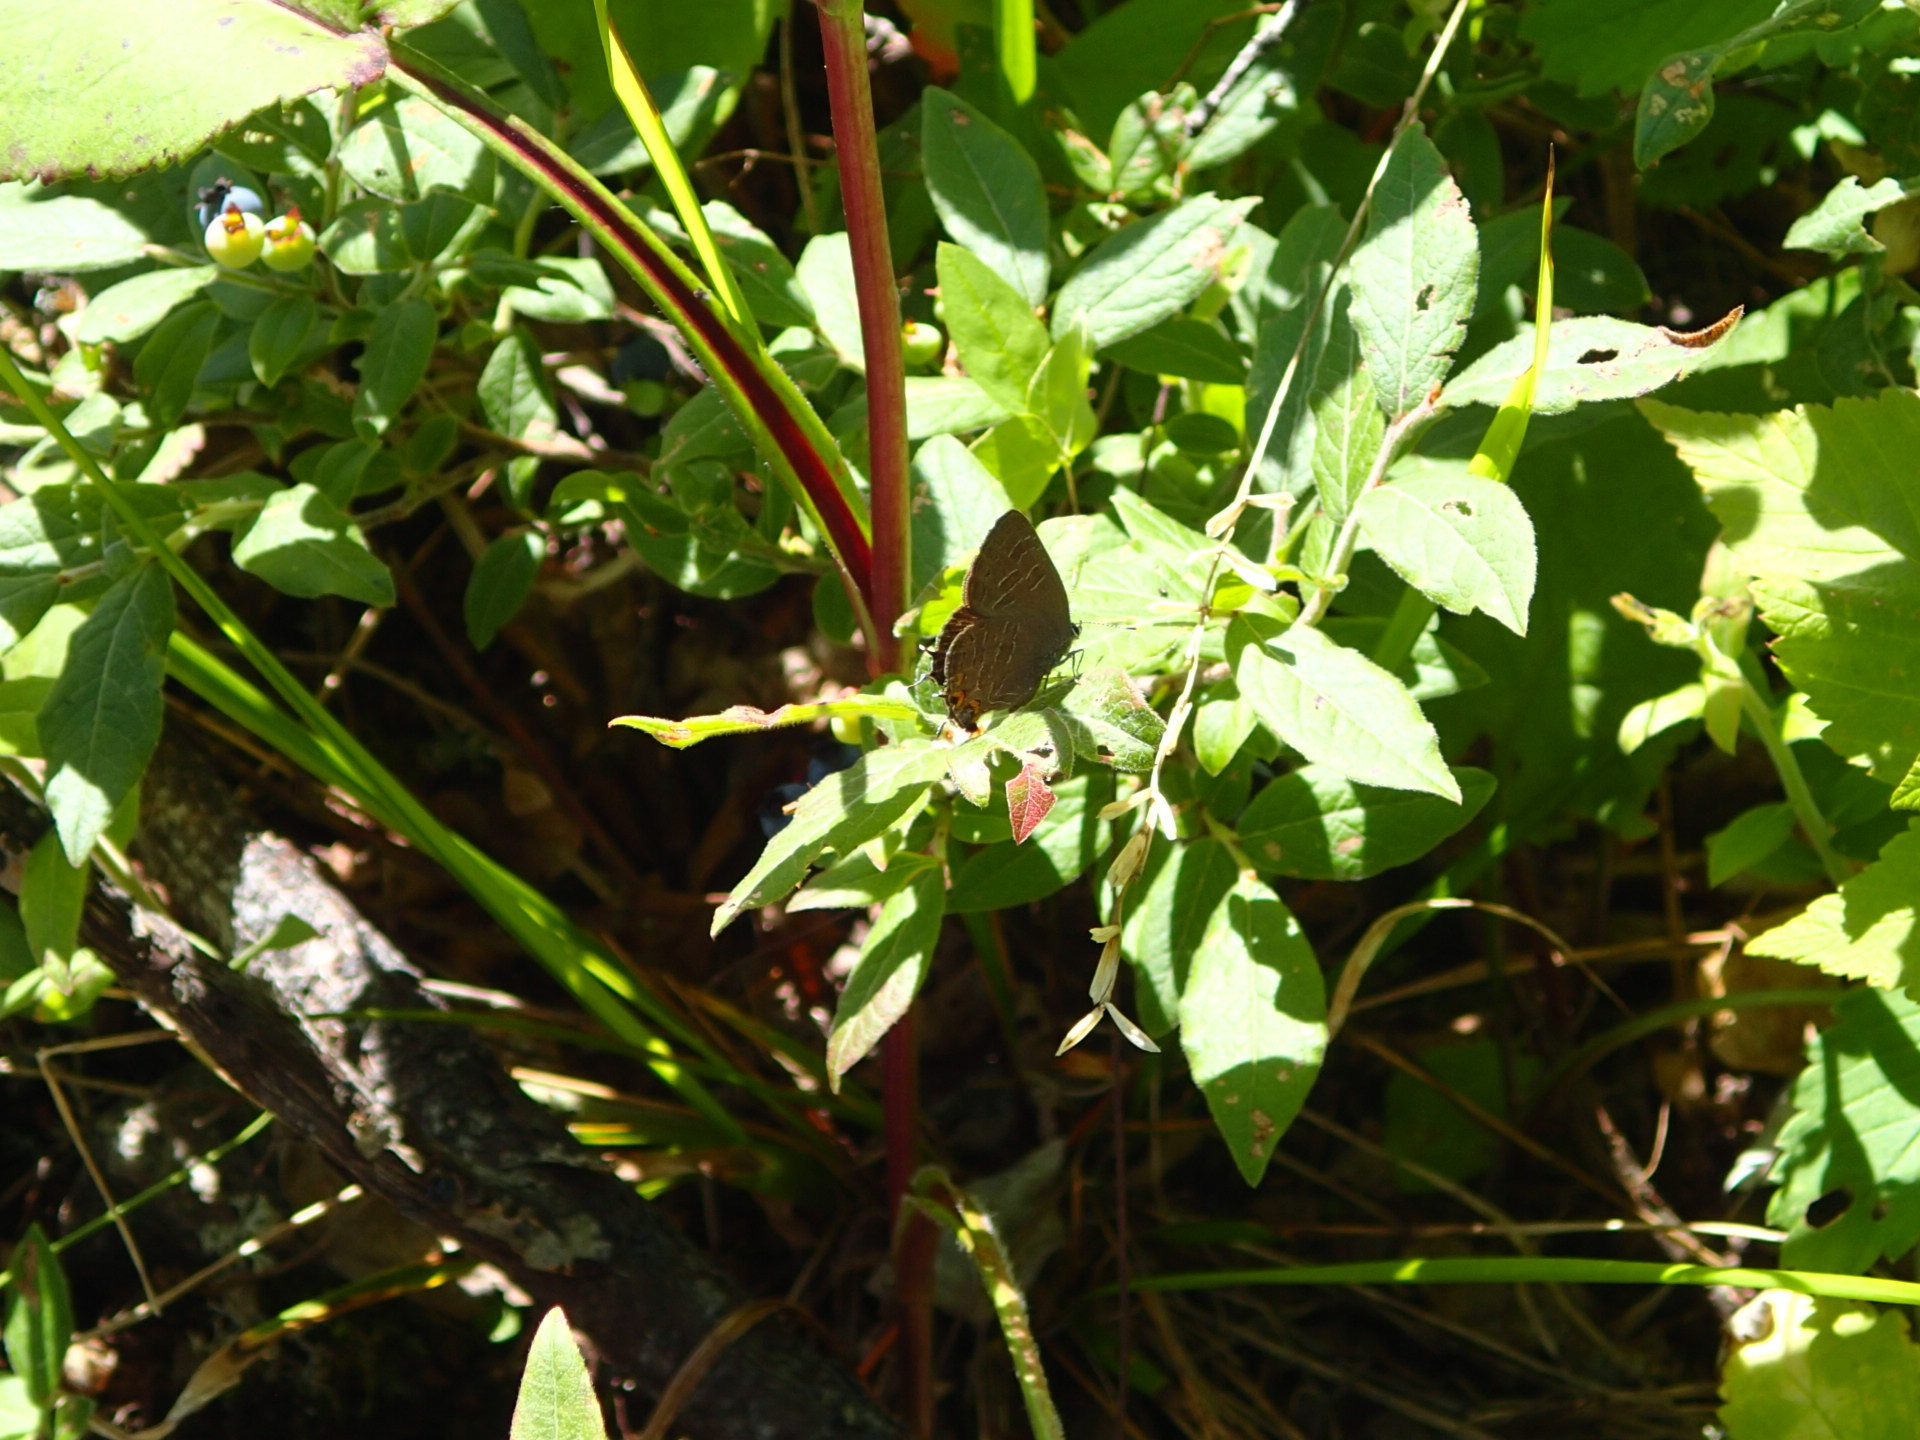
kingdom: Animalia
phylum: Arthropoda
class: Insecta
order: Lepidoptera
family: Lycaenidae
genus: Satyrium
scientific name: Satyrium liparops
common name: Striped hairstreak
